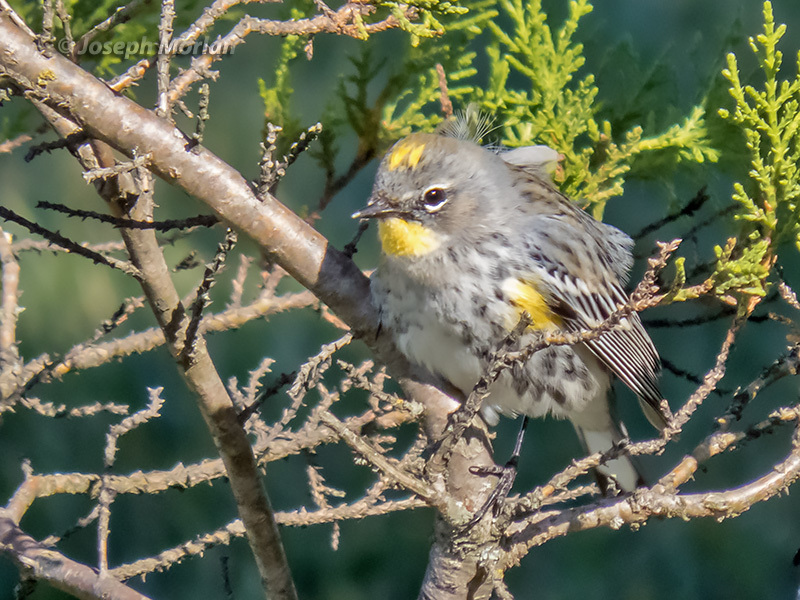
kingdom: Animalia
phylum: Chordata
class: Aves
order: Passeriformes
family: Parulidae
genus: Setophaga
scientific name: Setophaga coronata
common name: Myrtle warbler
